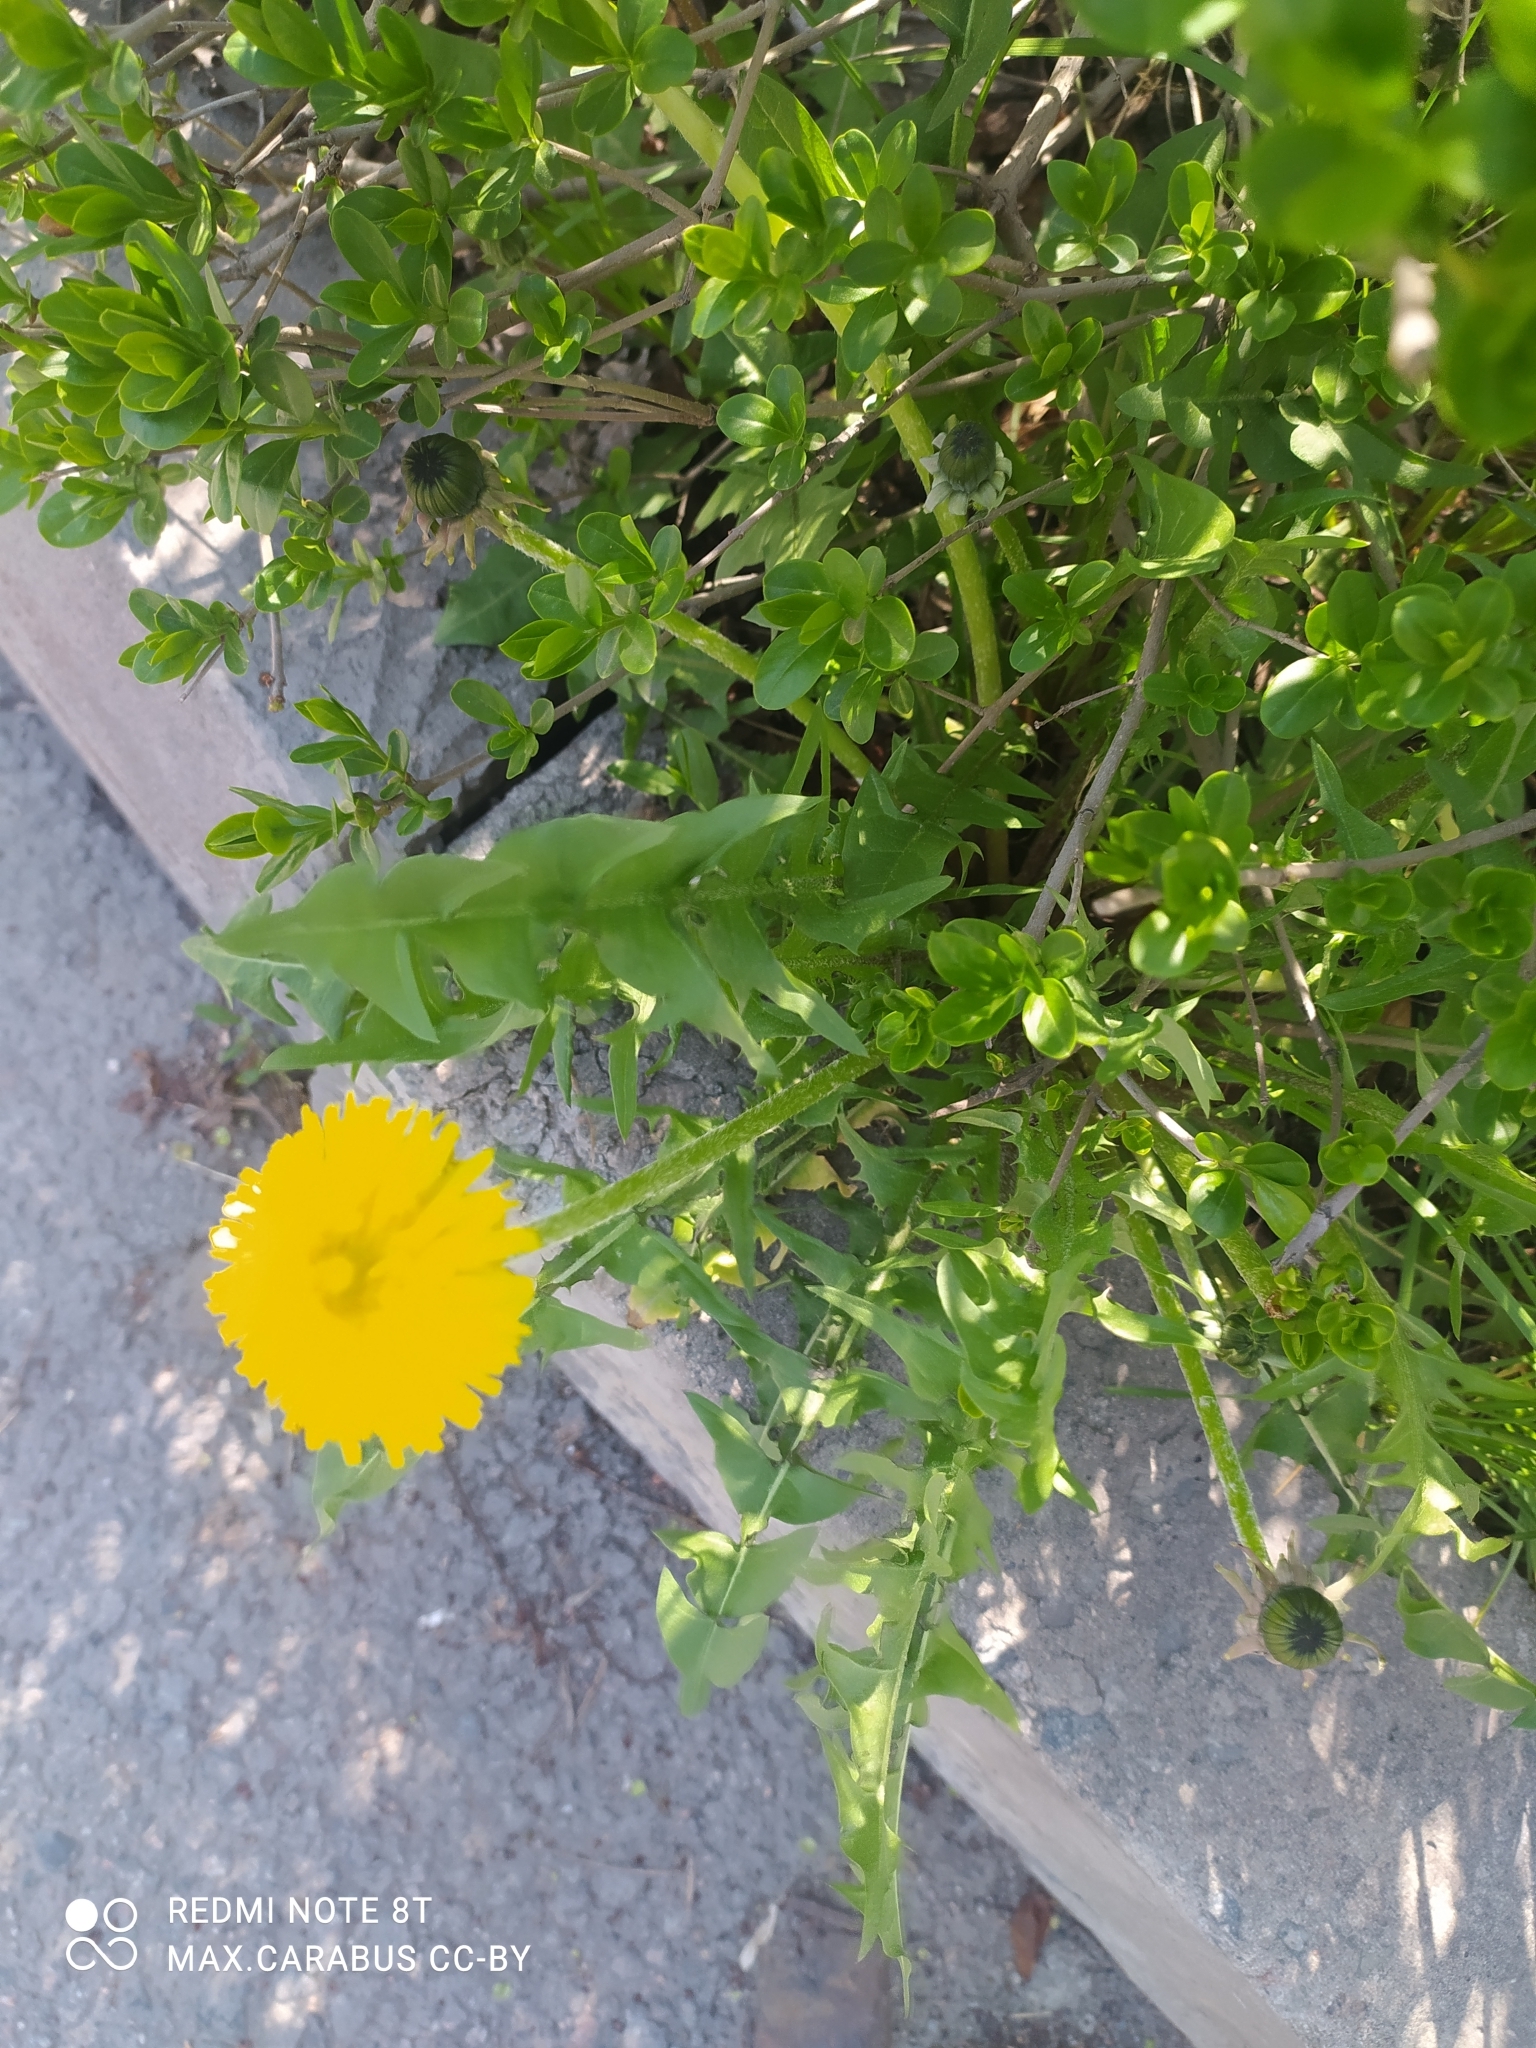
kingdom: Plantae
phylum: Tracheophyta
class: Magnoliopsida
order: Asterales
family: Asteraceae
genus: Taraxacum
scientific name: Taraxacum officinale
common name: Common dandelion
